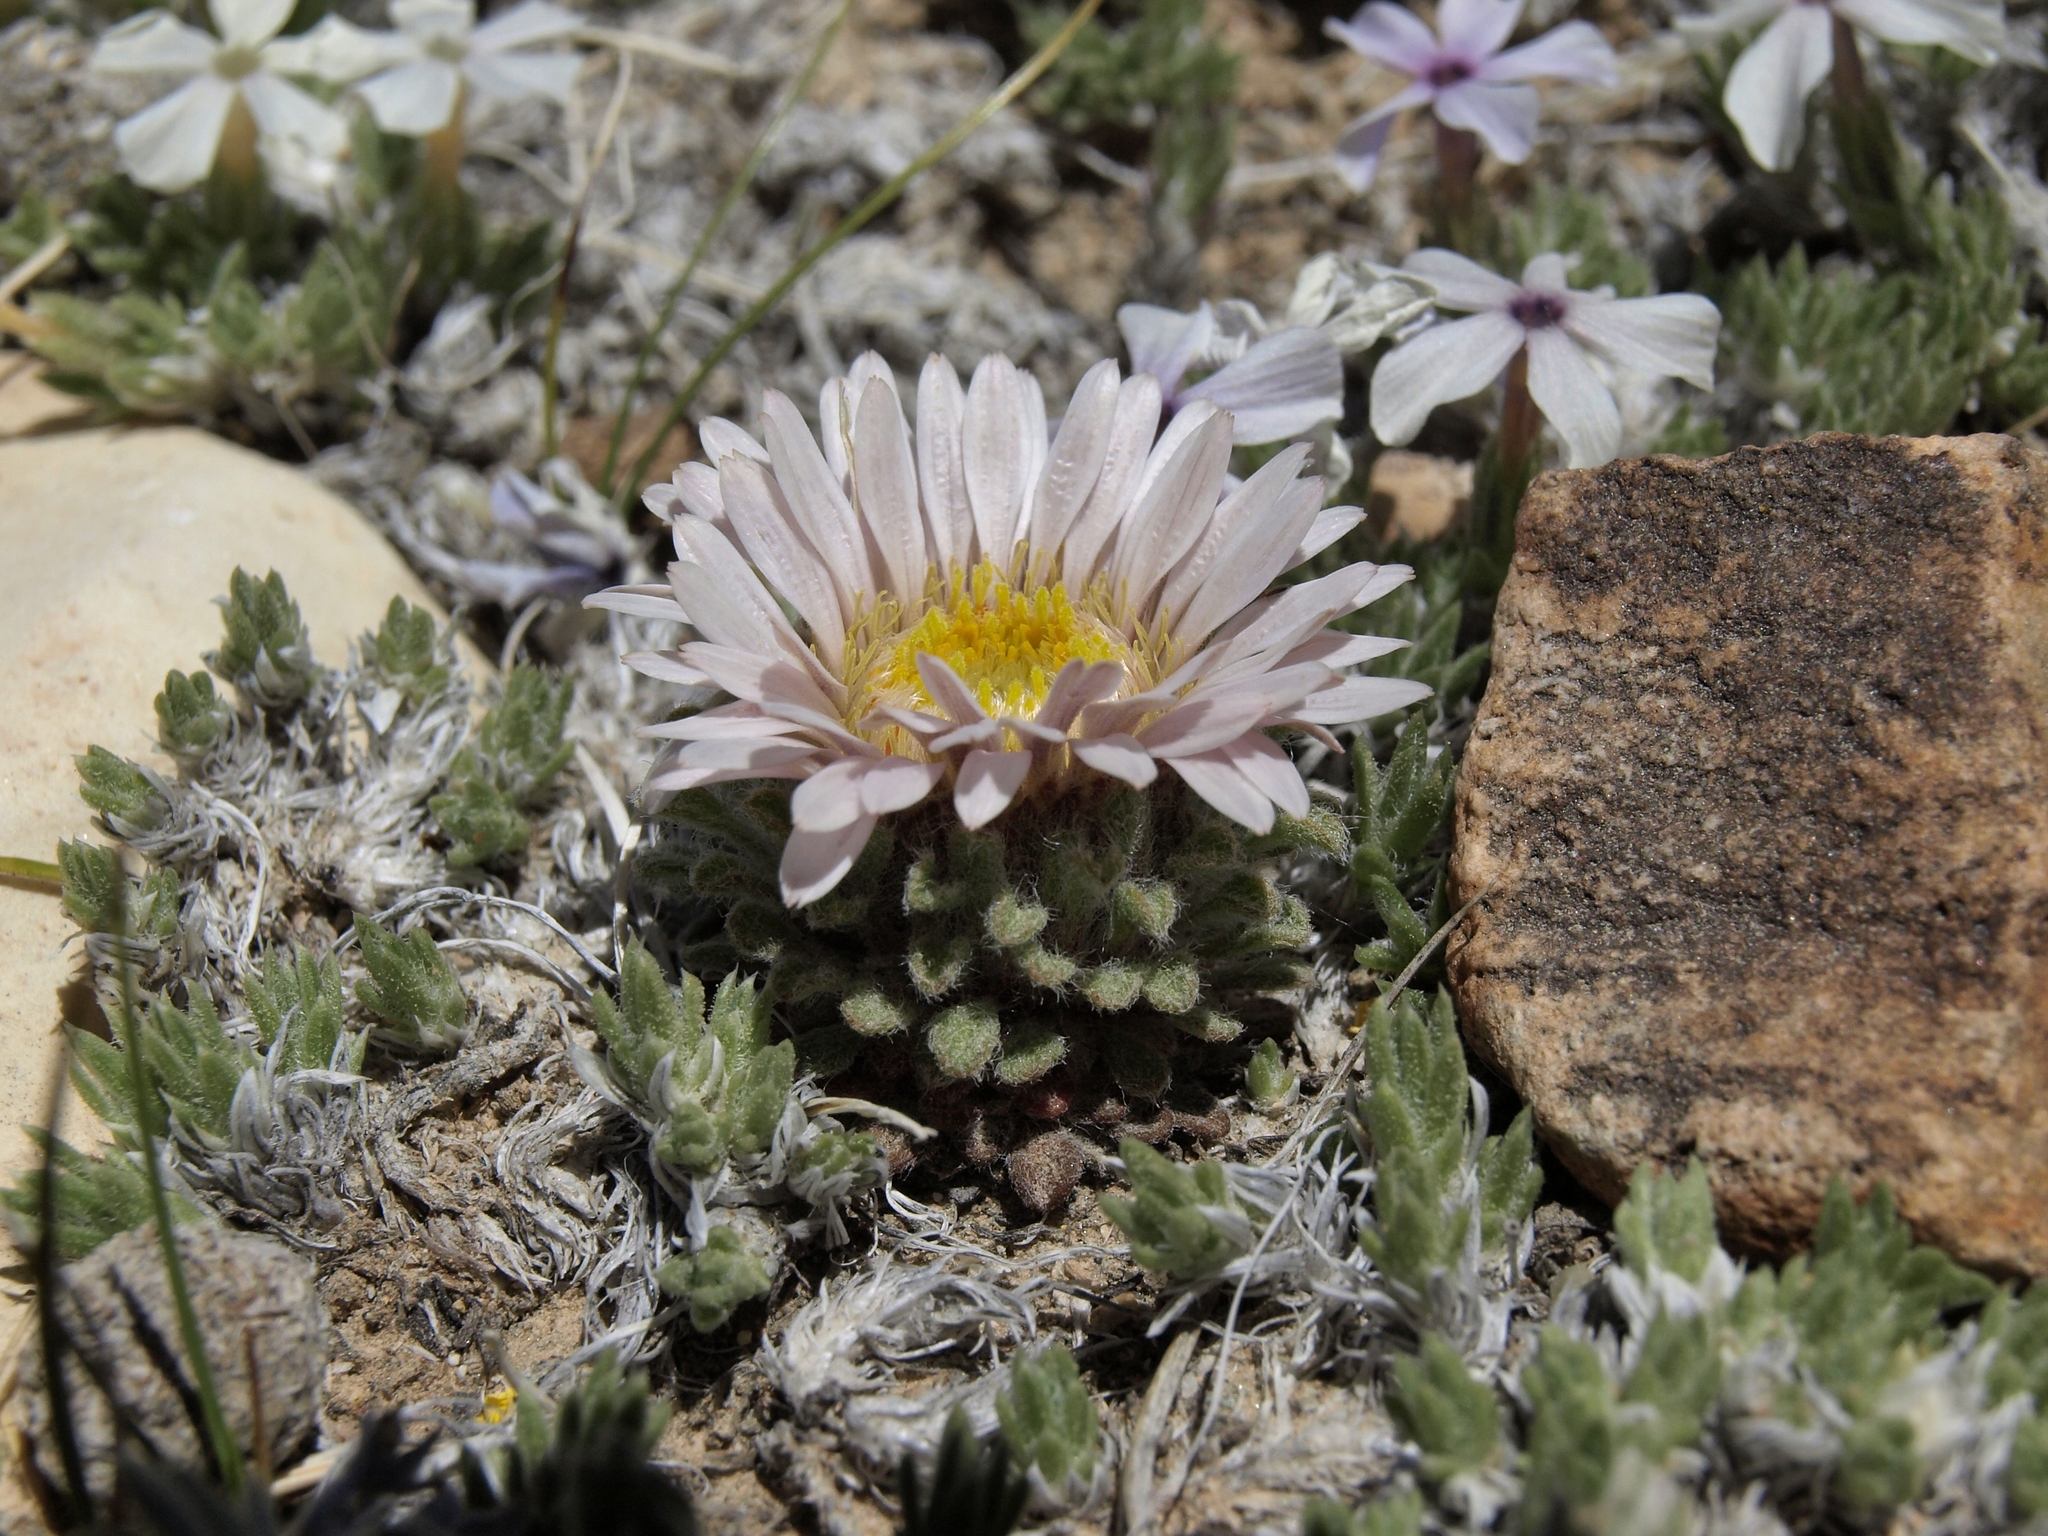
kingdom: Plantae
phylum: Tracheophyta
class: Magnoliopsida
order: Asterales
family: Asteraceae
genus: Townsendia
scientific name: Townsendia condensata
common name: Alpine townsend daisy
